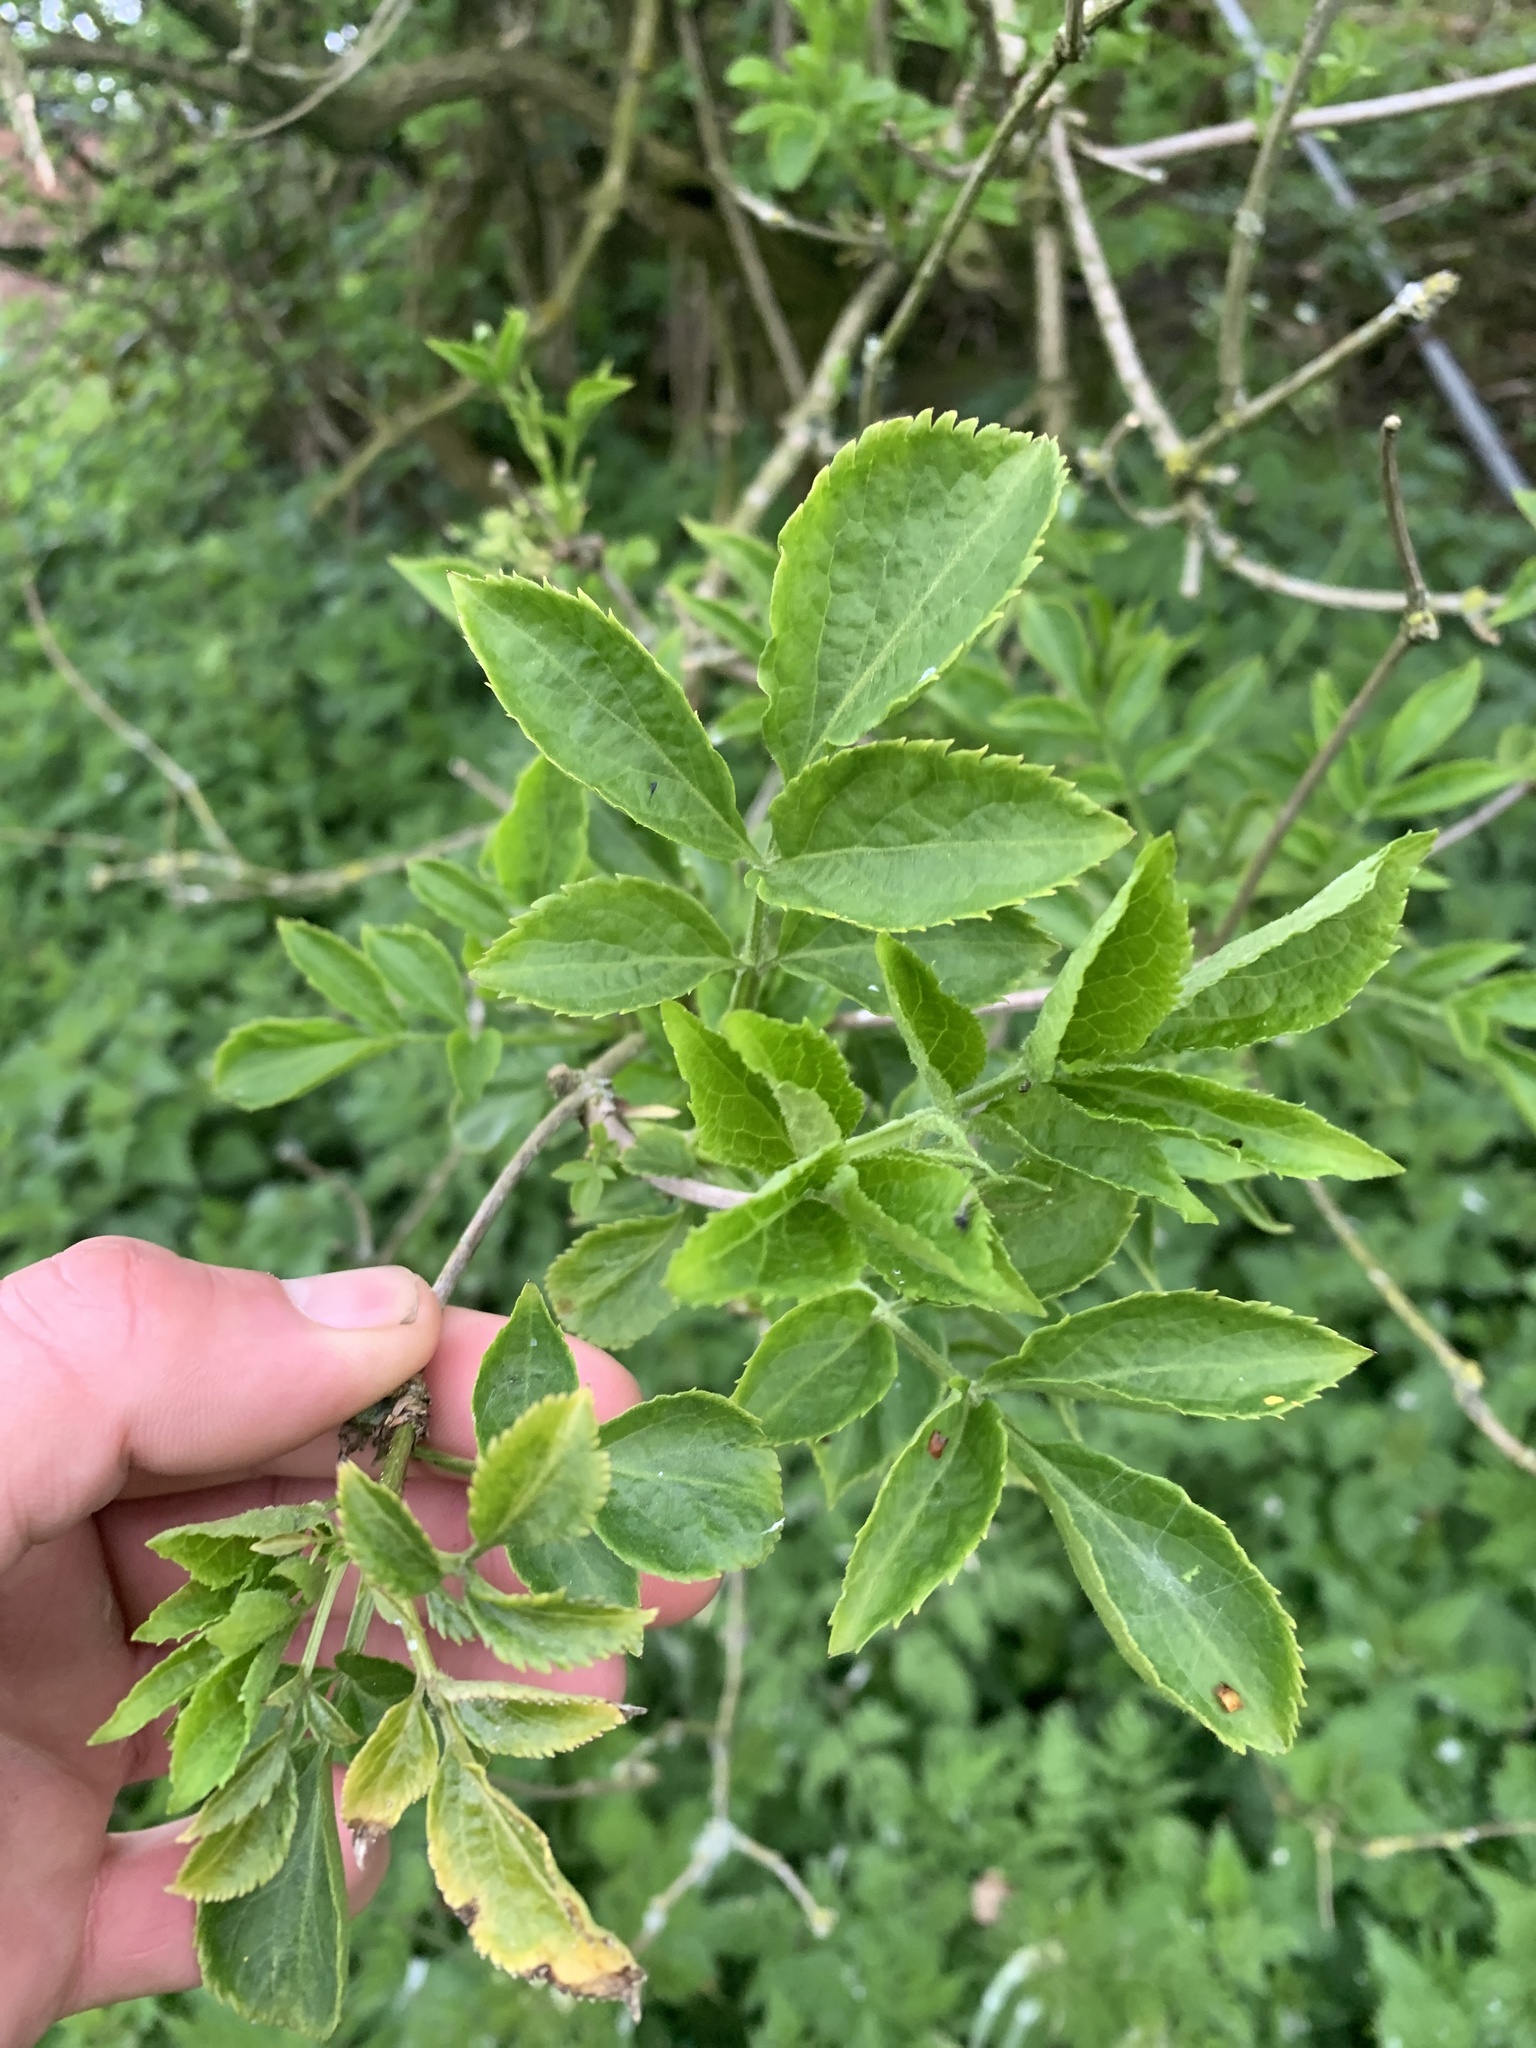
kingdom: Plantae
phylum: Tracheophyta
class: Magnoliopsida
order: Dipsacales
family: Viburnaceae
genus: Sambucus
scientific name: Sambucus nigra
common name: Elder
